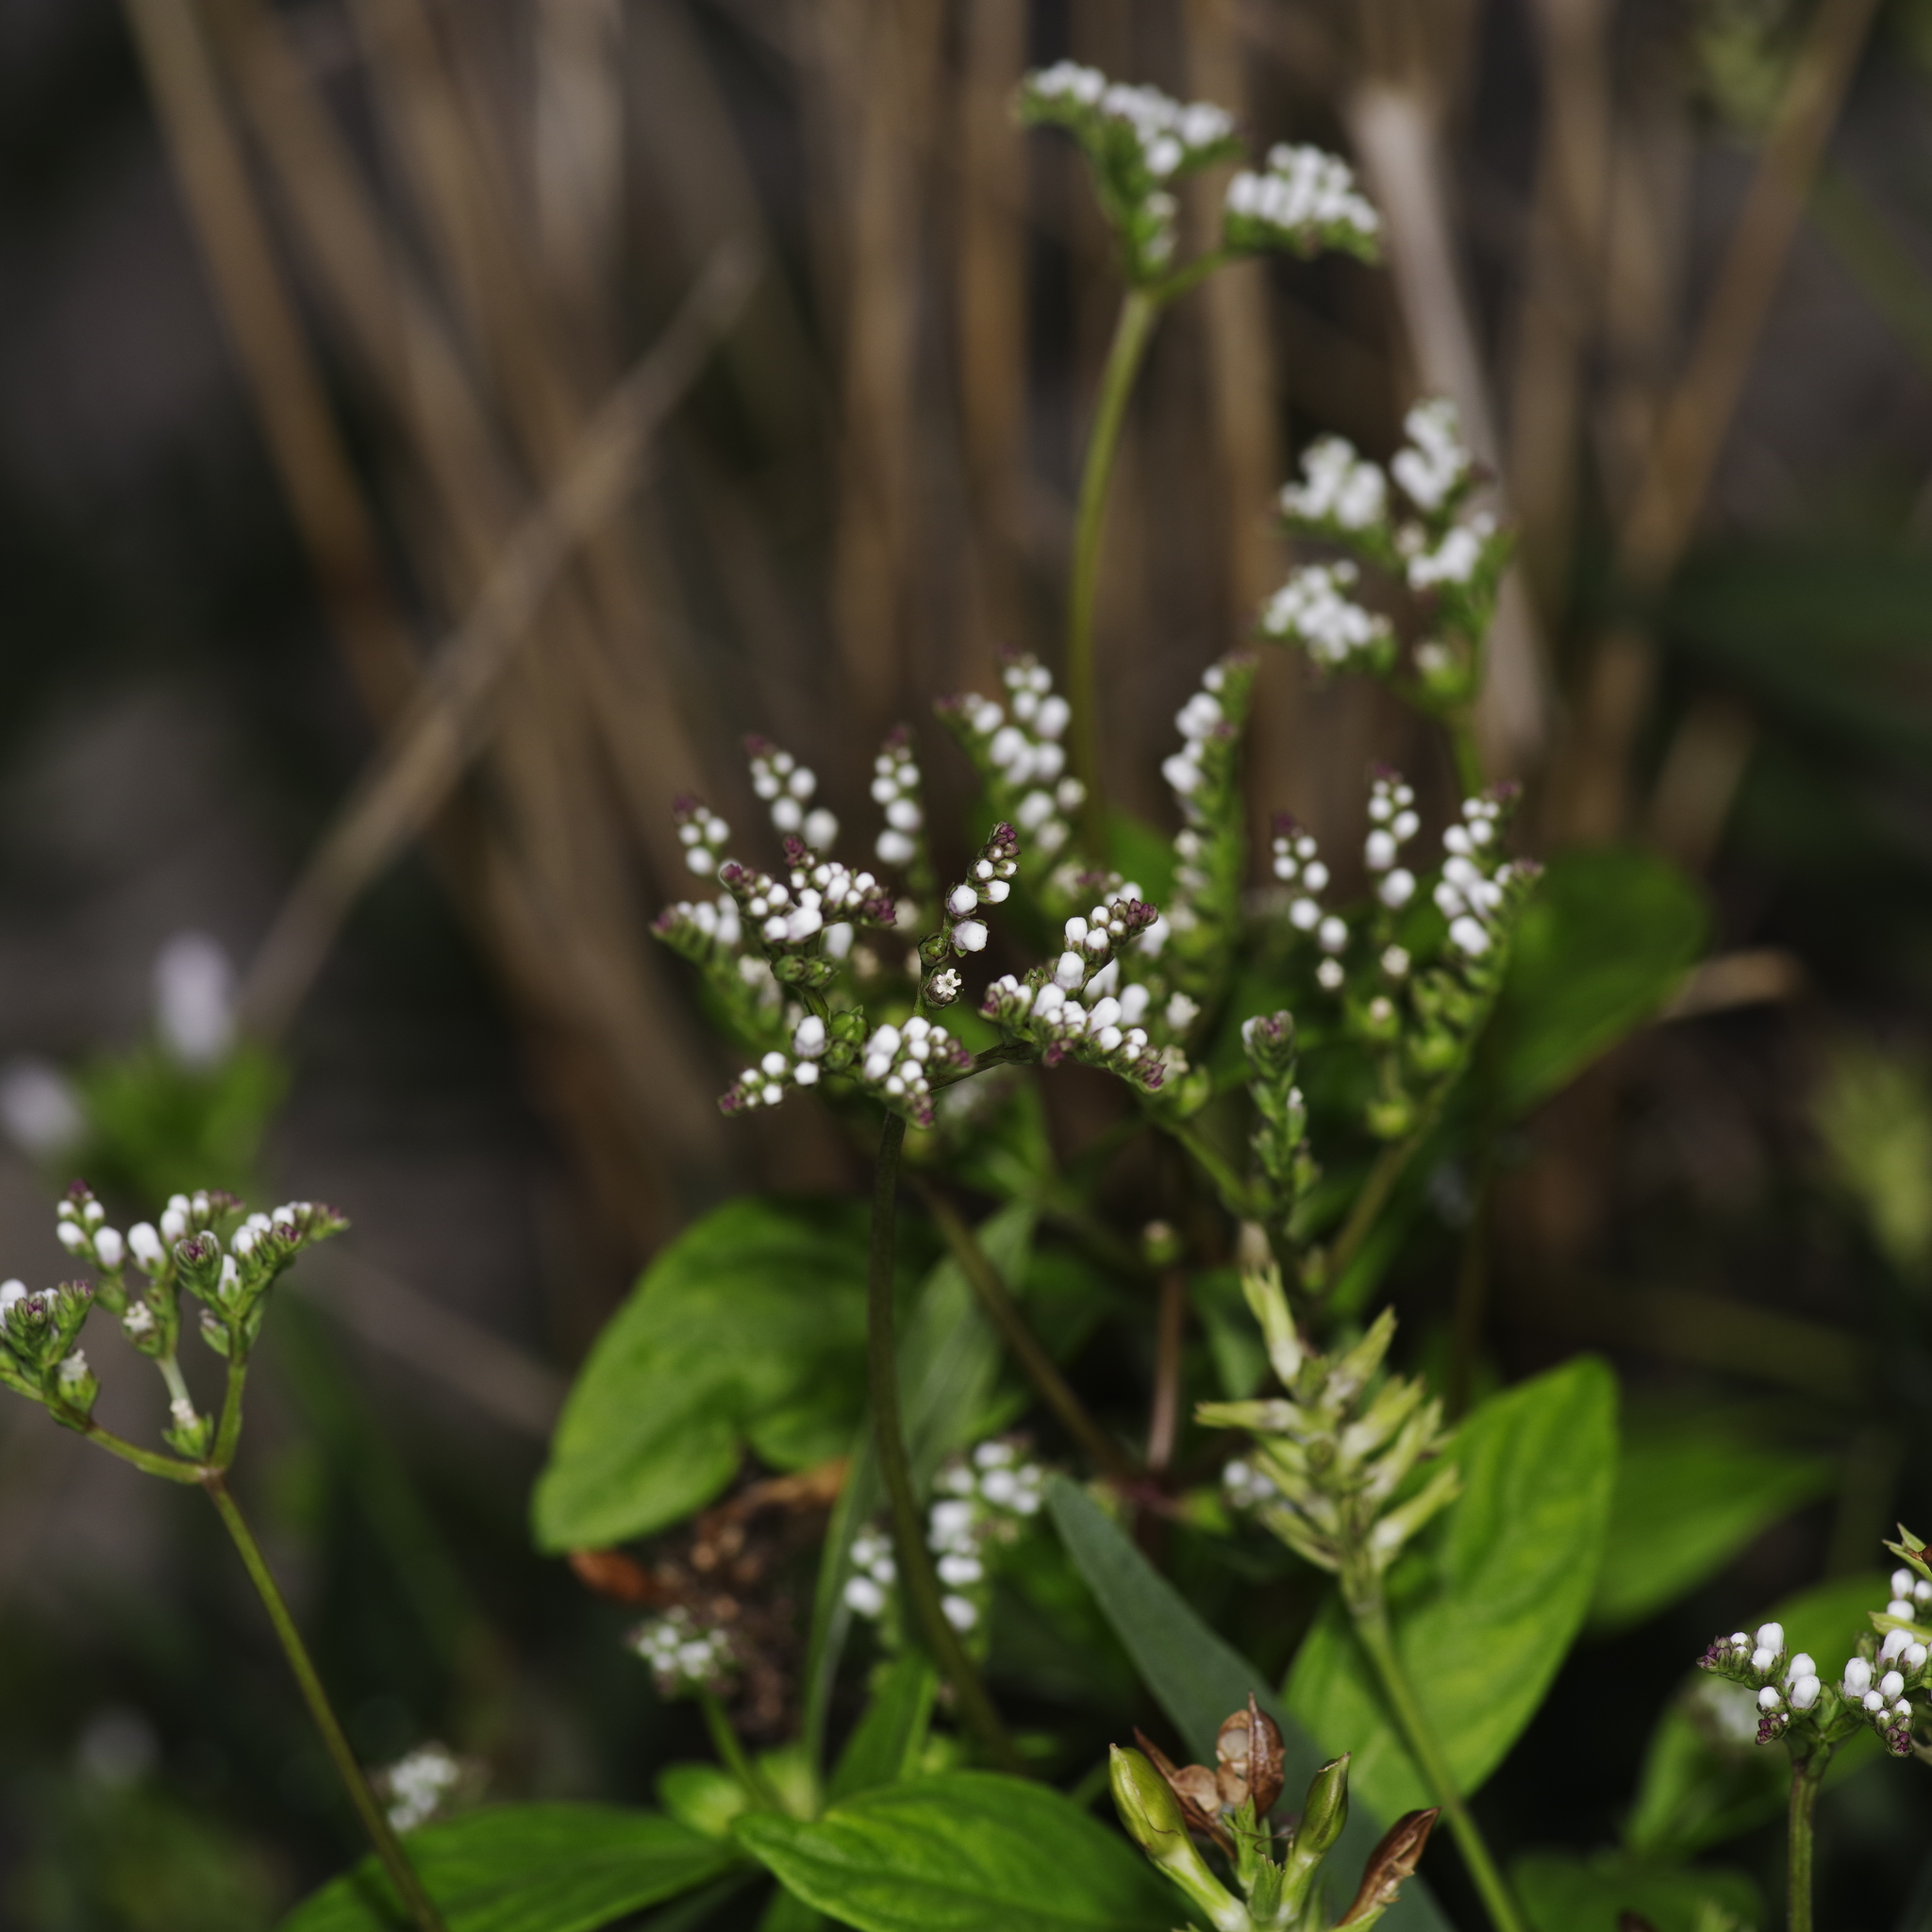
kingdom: Plantae
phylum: Tracheophyta
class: Magnoliopsida
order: Gentianales
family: Loganiaceae
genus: Mitreola
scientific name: Mitreola petiolata
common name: Lax hornpod
